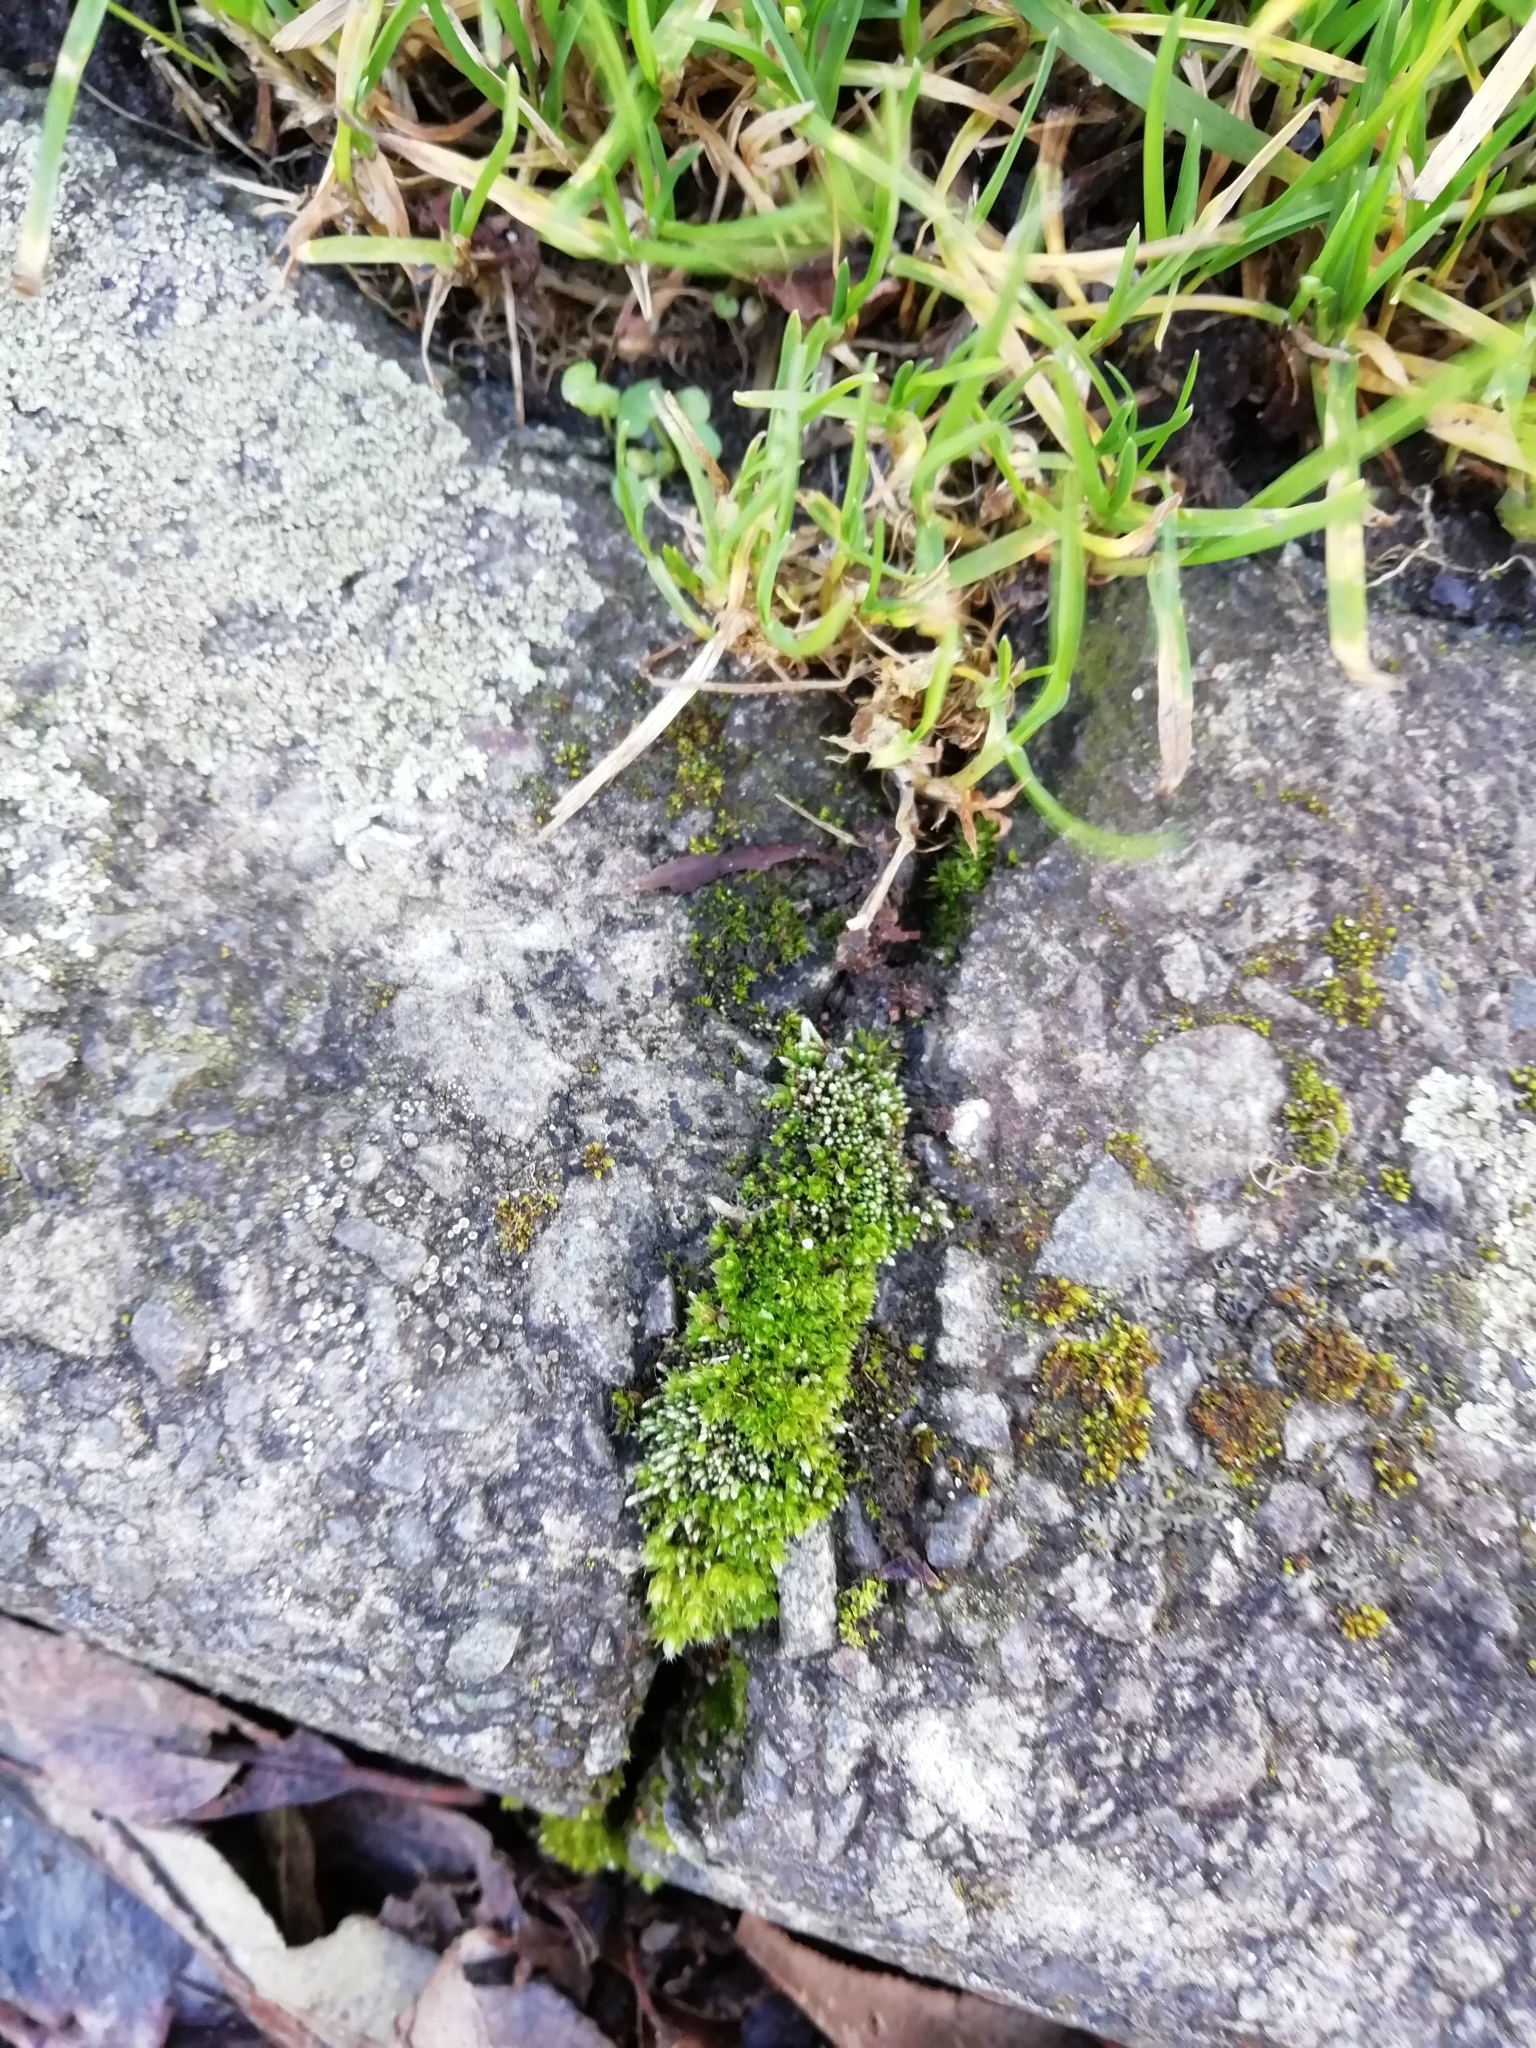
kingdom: Plantae
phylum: Bryophyta
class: Bryopsida
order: Bryales
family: Bryaceae
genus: Bryum
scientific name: Bryum argenteum
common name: Silver-moss
